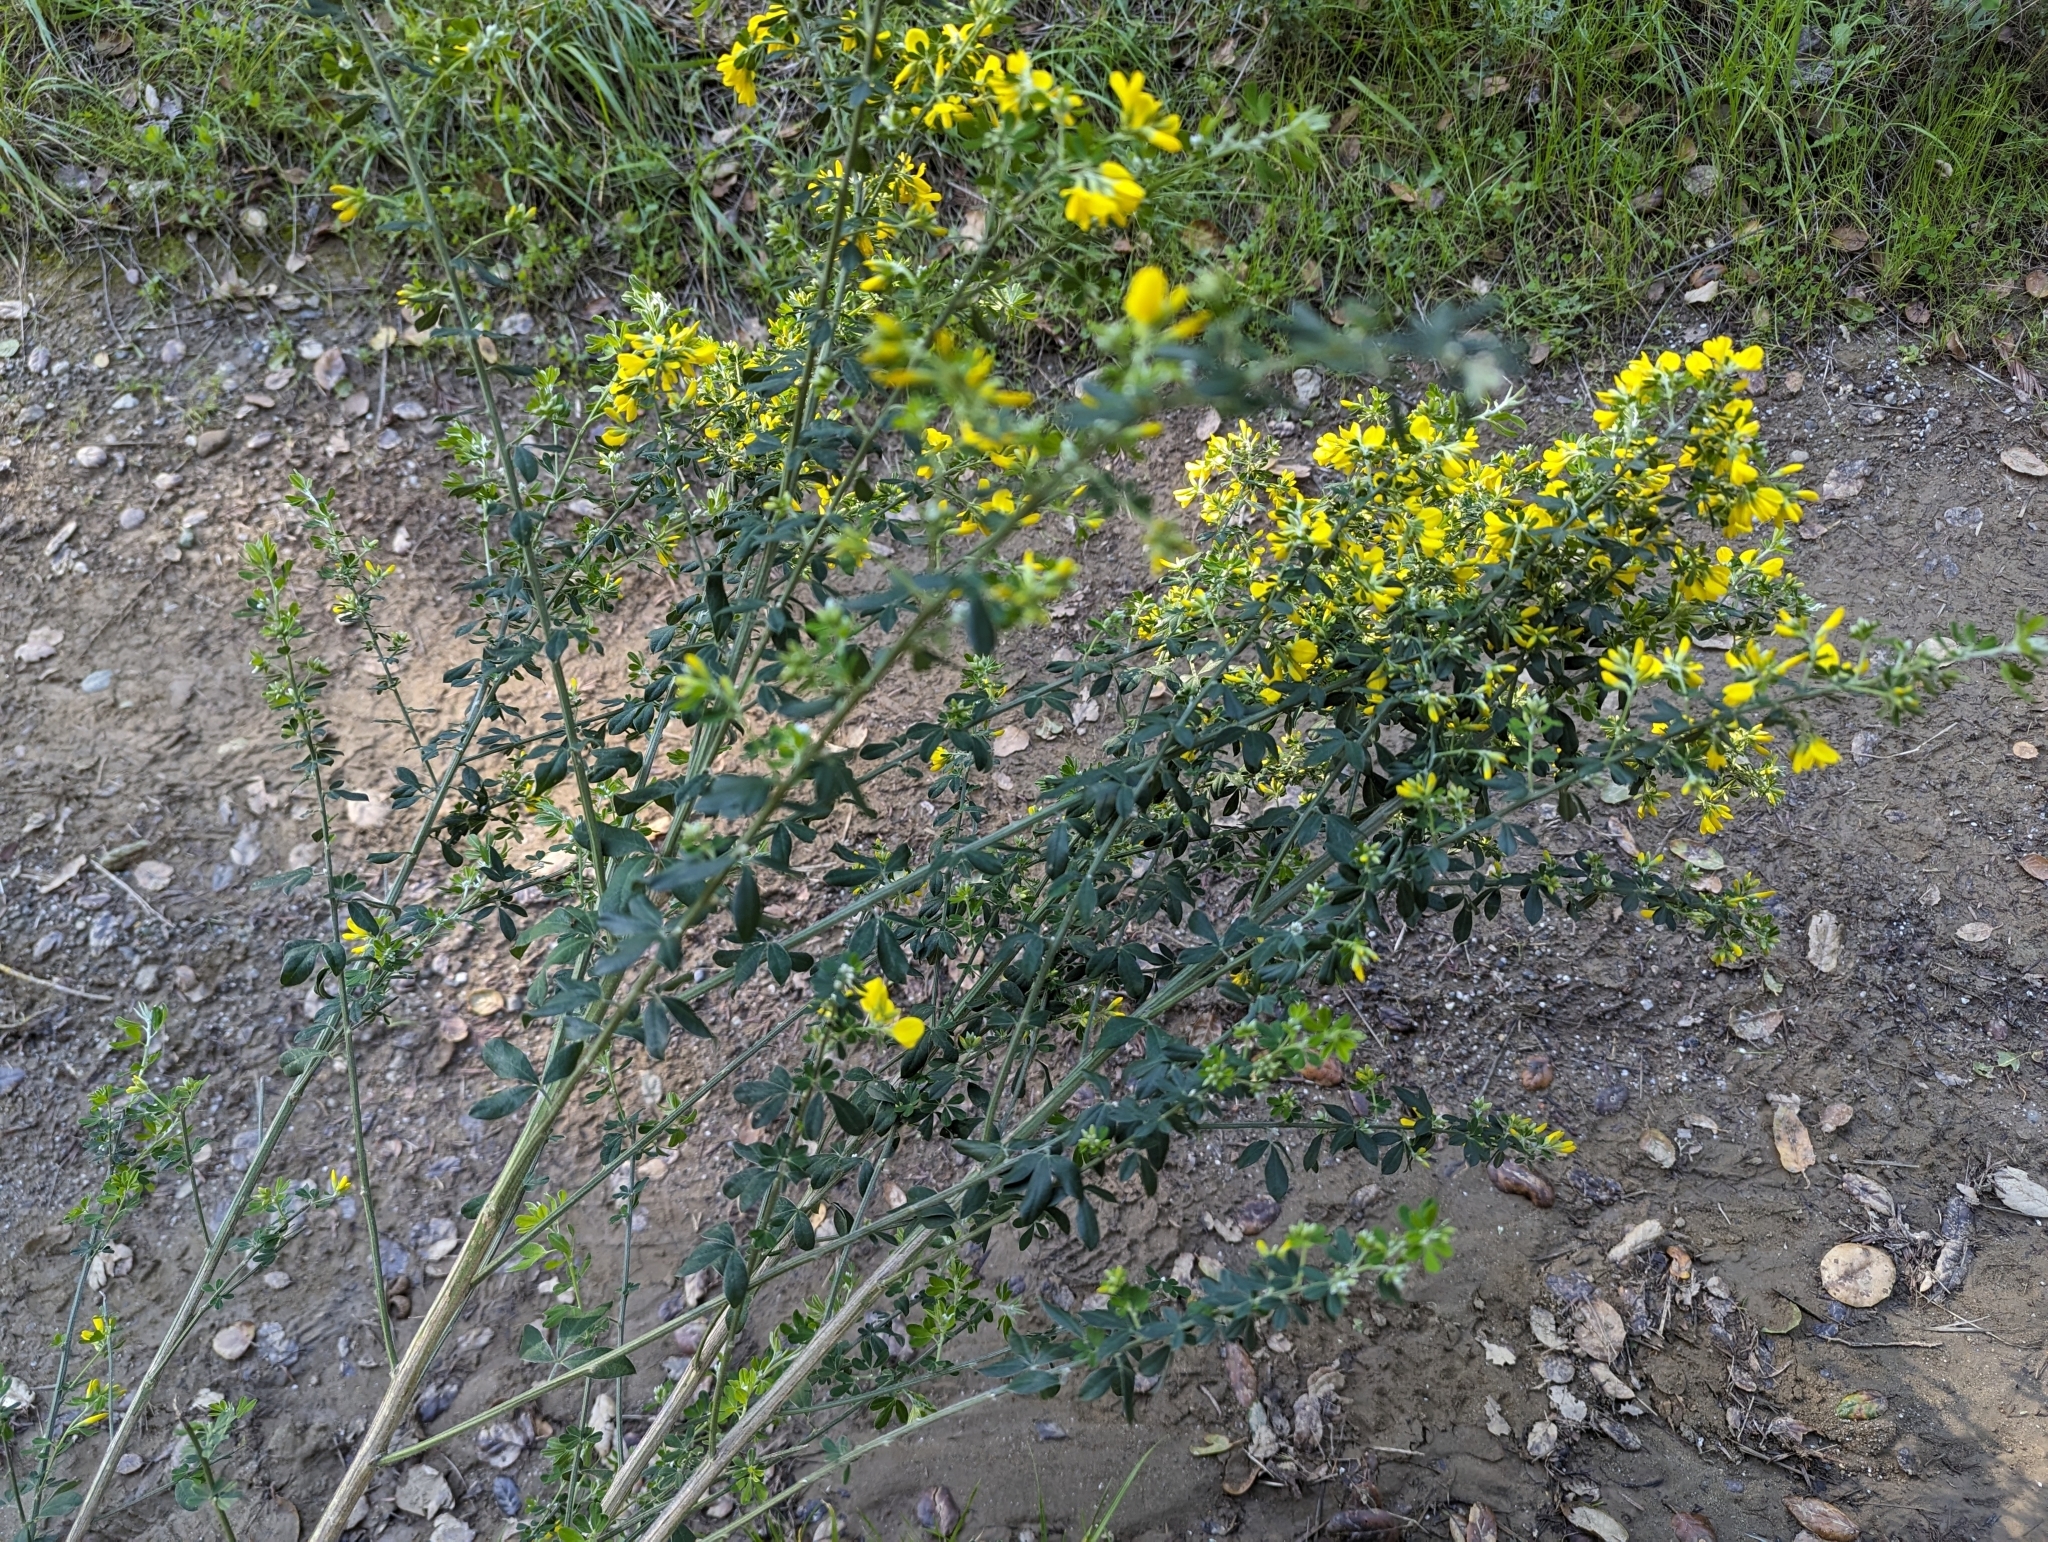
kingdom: Plantae
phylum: Tracheophyta
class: Magnoliopsida
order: Fabales
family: Fabaceae
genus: Genista
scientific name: Genista monspessulana
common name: Montpellier broom
